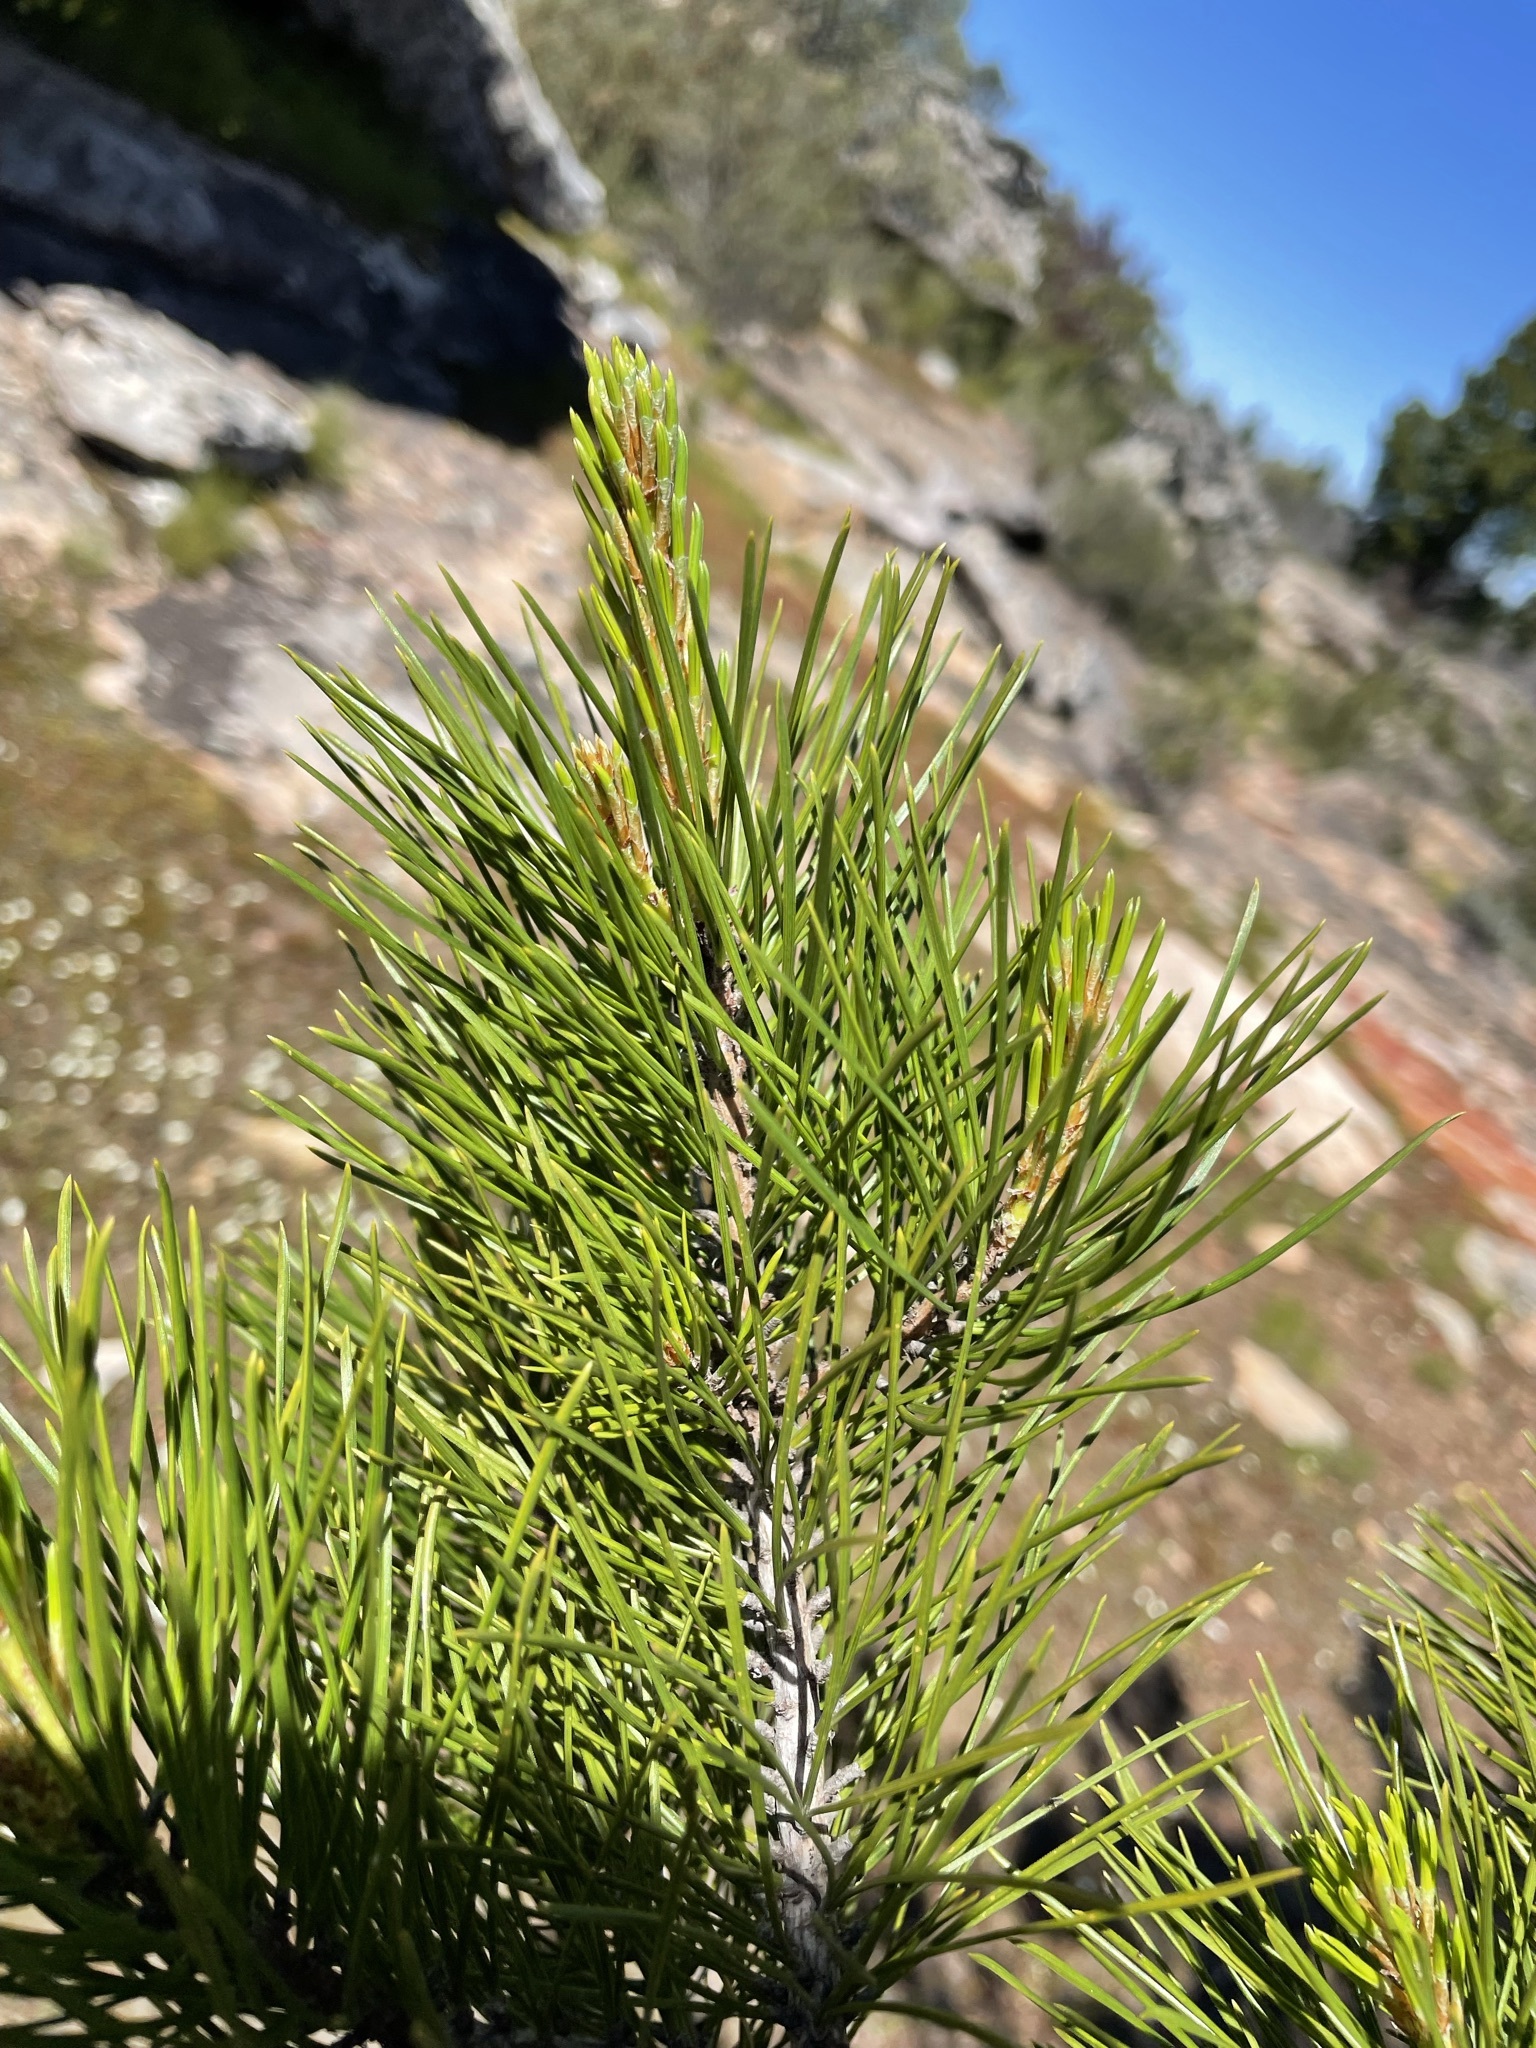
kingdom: Plantae
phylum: Tracheophyta
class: Pinopsida
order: Pinales
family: Pinaceae
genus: Pinus
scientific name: Pinus radiata
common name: Monterey pine
